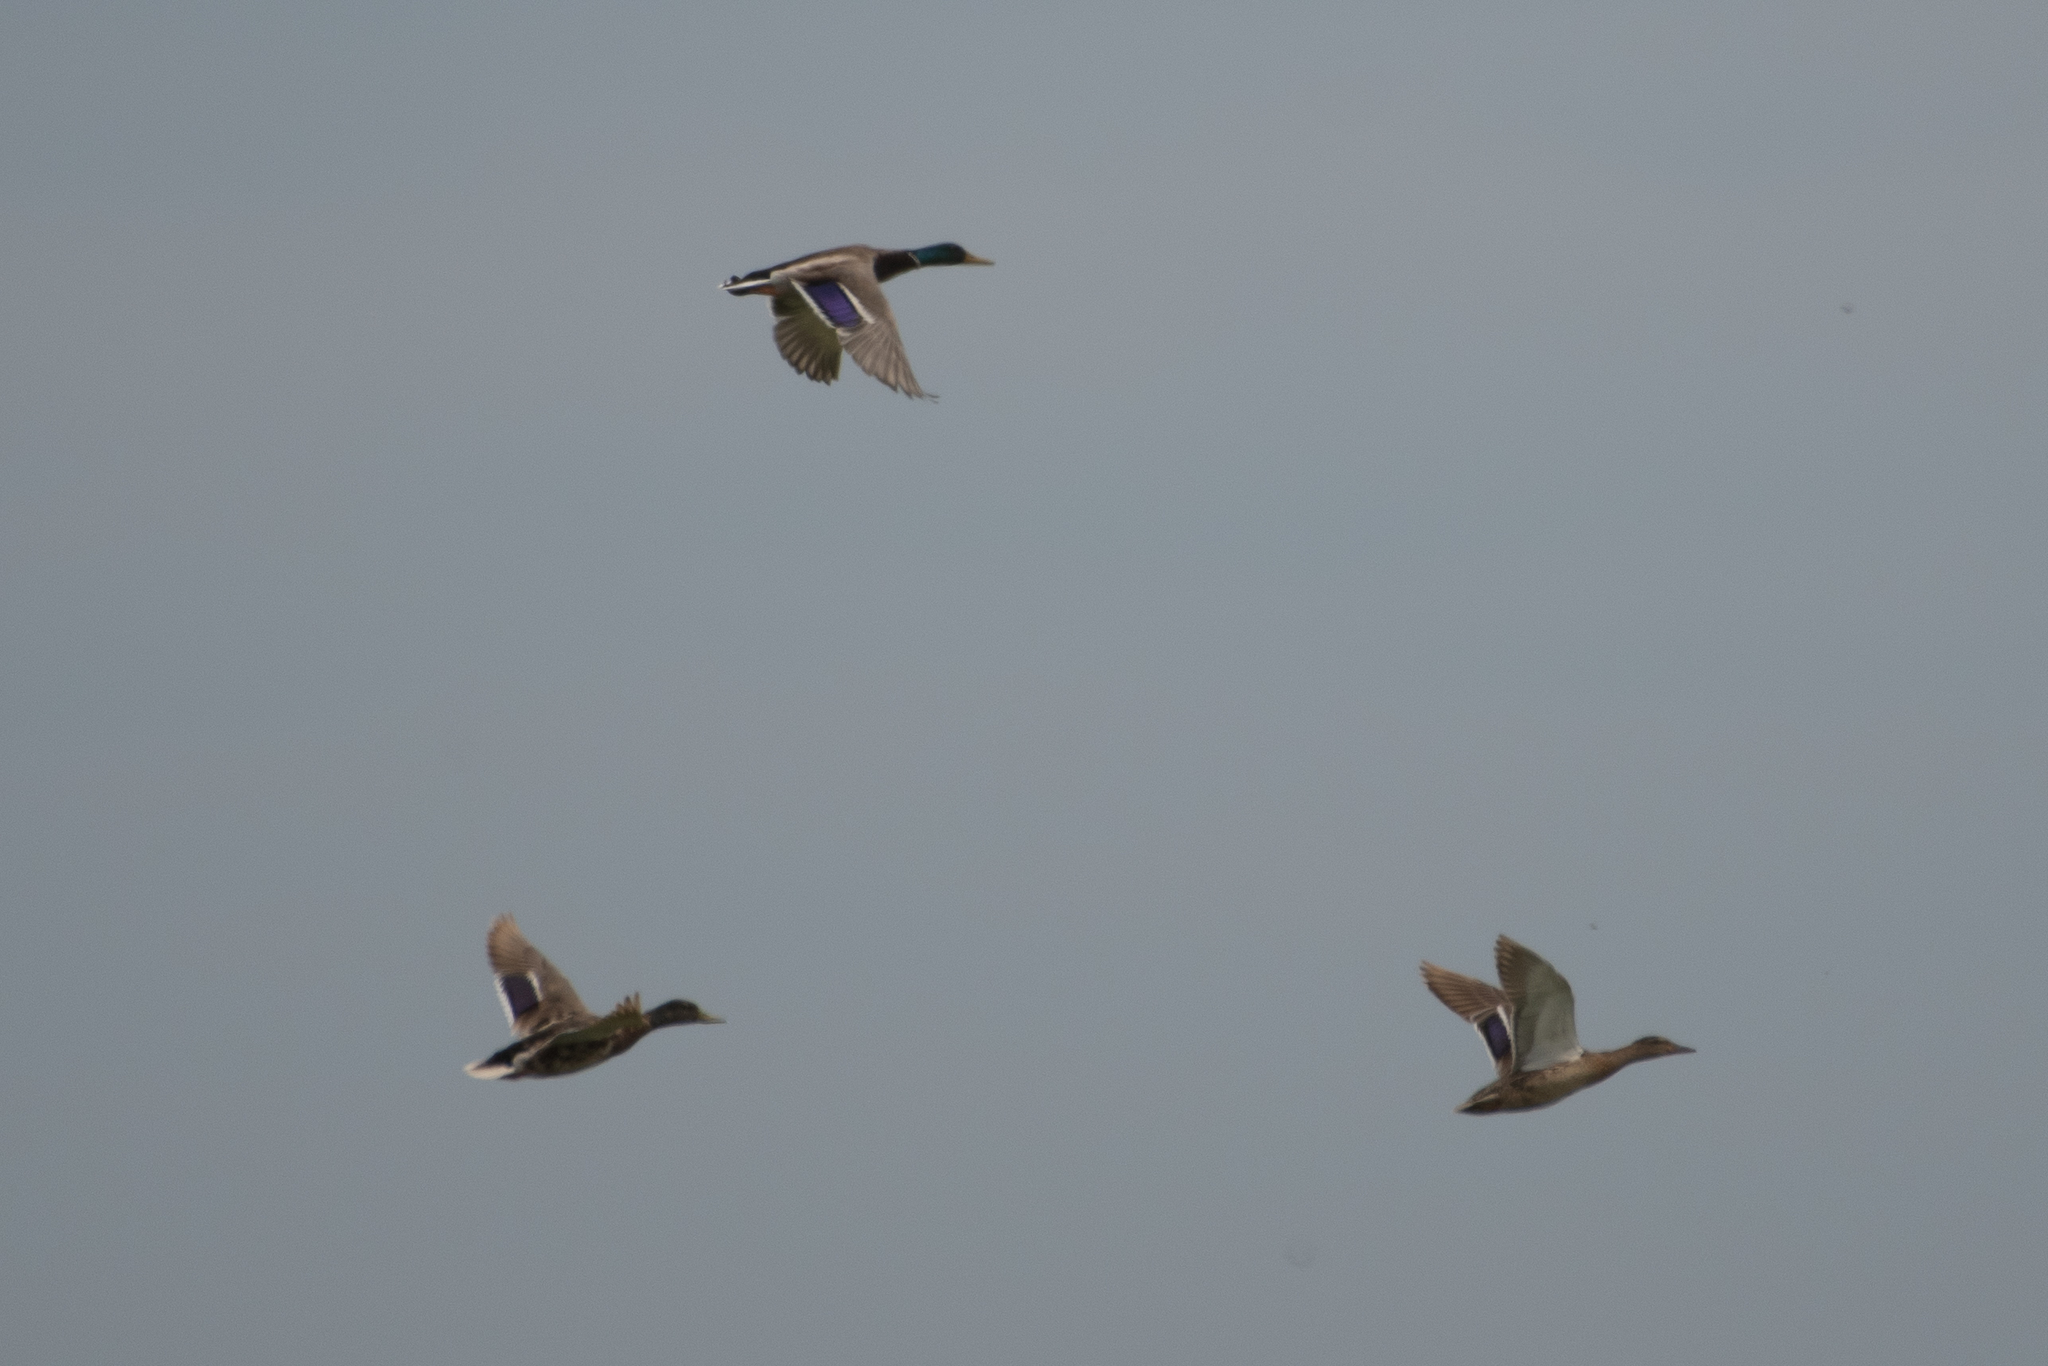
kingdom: Animalia
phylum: Chordata
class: Aves
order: Anseriformes
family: Anatidae
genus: Anas
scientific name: Anas platyrhynchos
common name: Mallard
